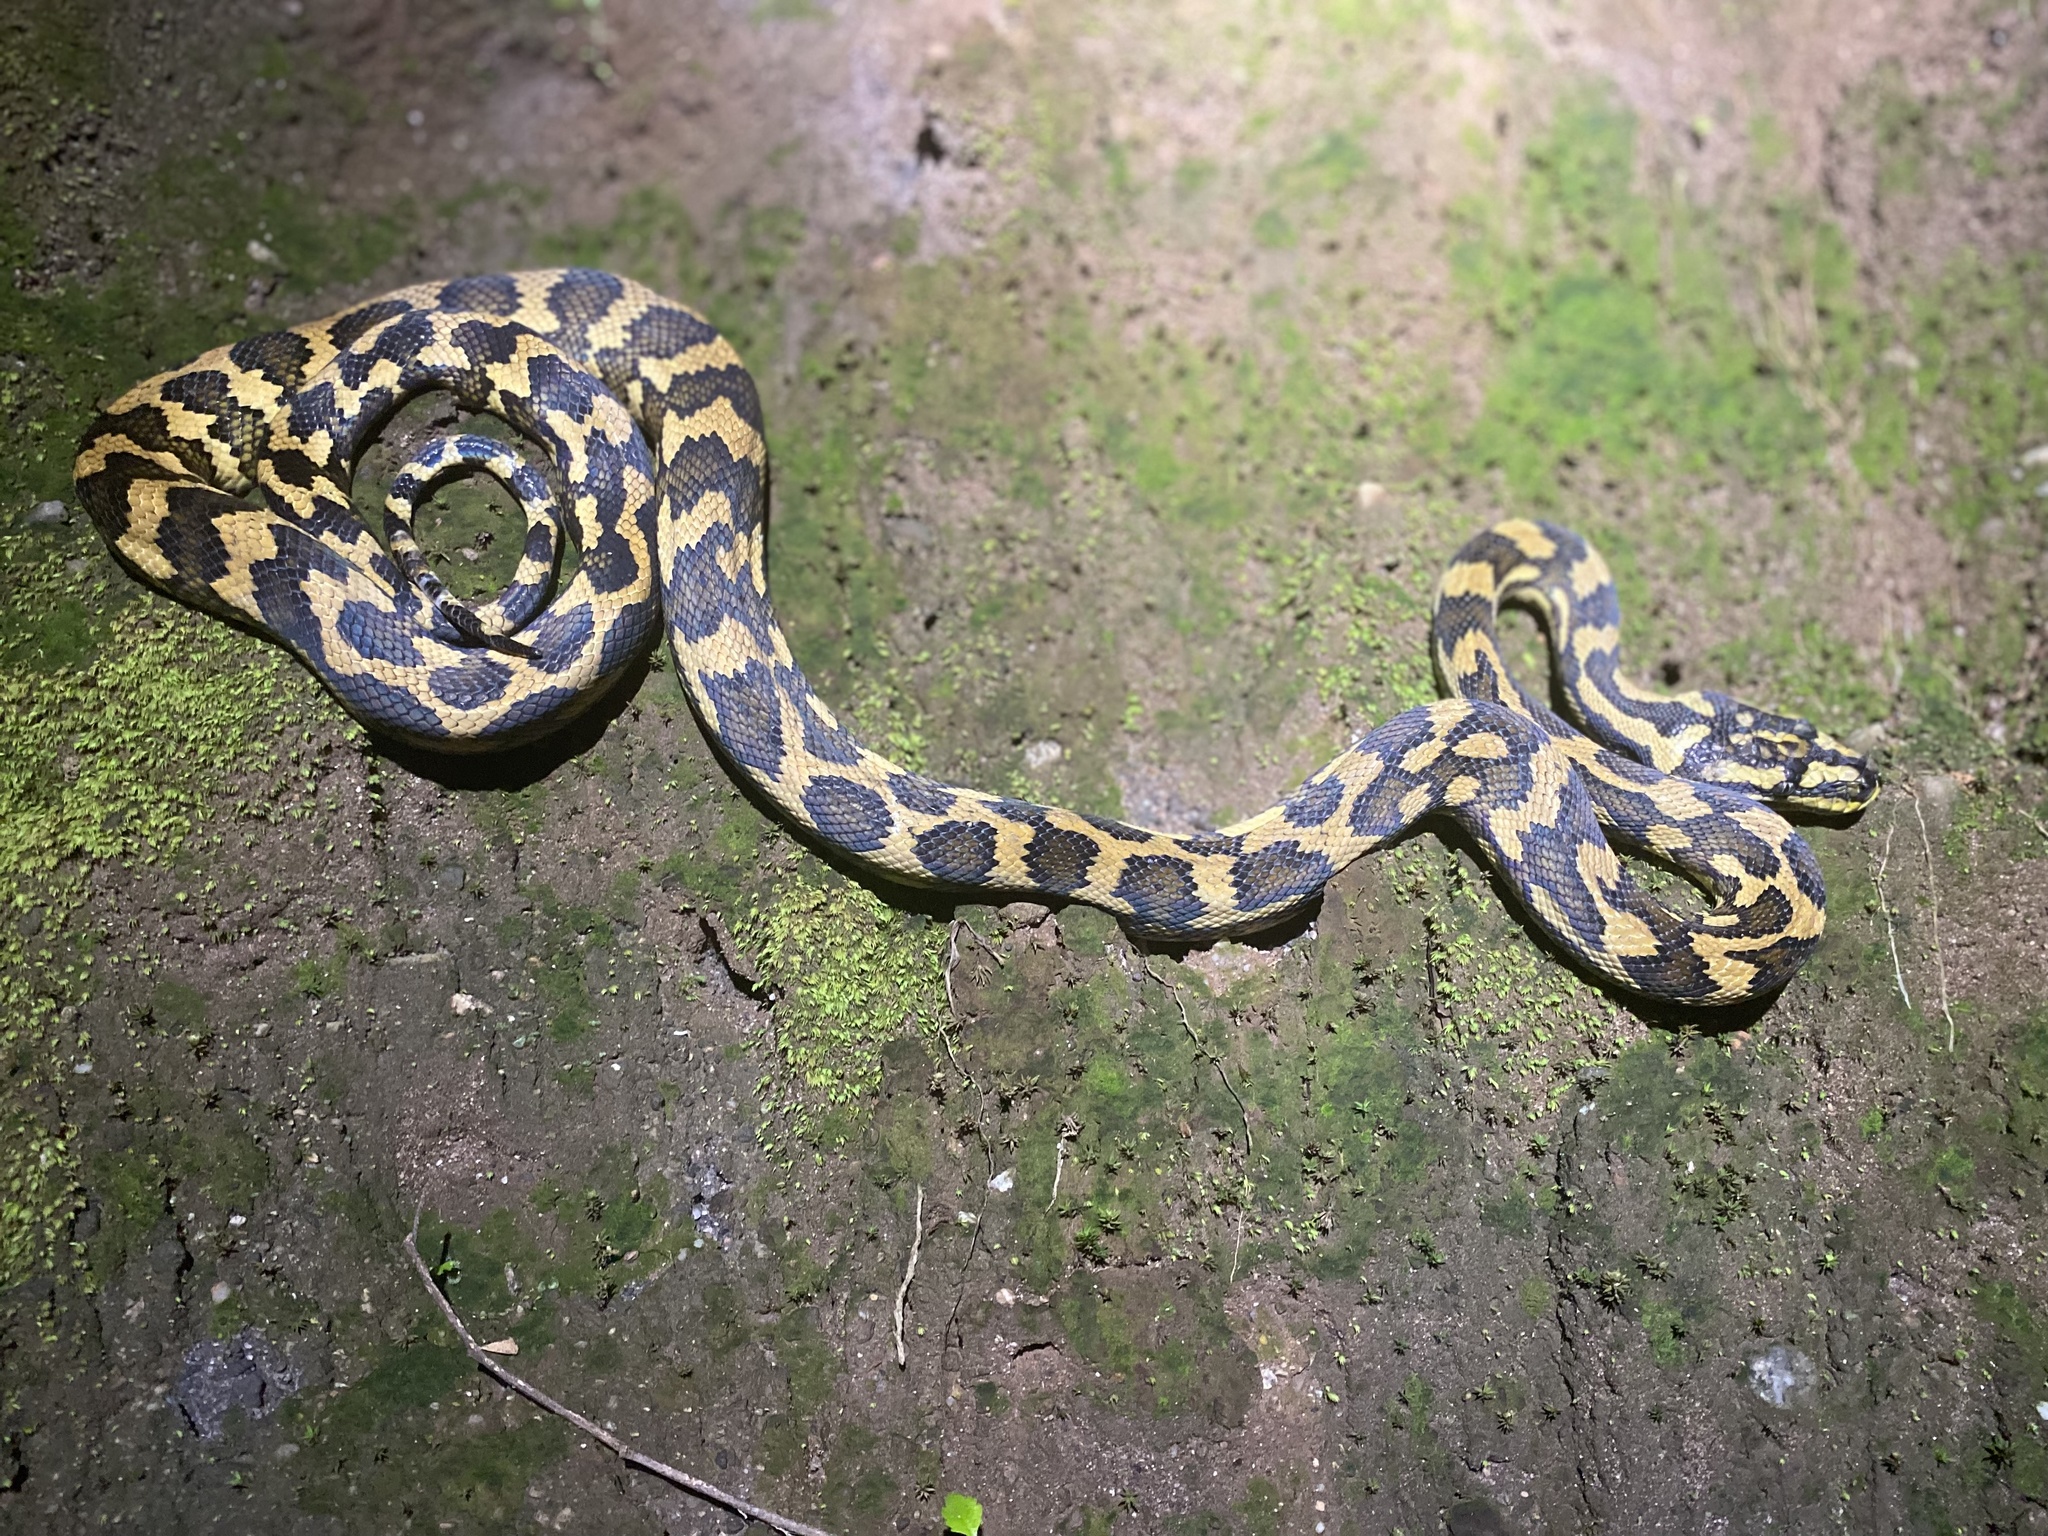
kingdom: Animalia
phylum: Chordata
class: Squamata
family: Pythonidae
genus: Morelia
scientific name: Morelia spilota
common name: Carpet python
